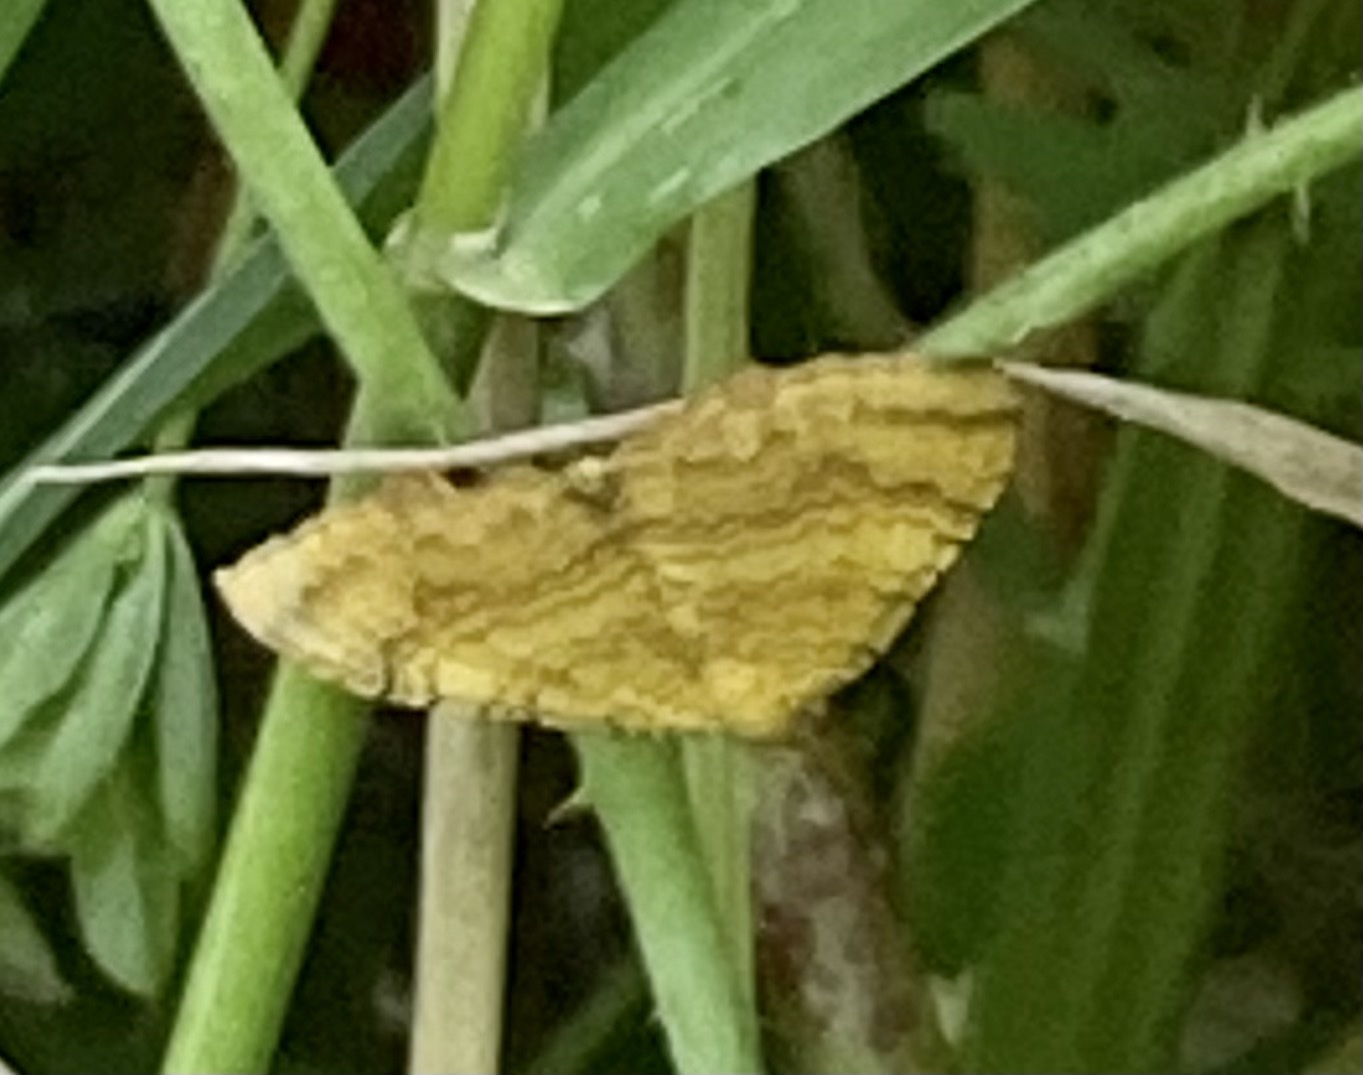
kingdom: Animalia
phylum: Arthropoda
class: Insecta
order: Lepidoptera
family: Geometridae
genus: Camptogramma
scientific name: Camptogramma bilineata
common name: Yellow shell
